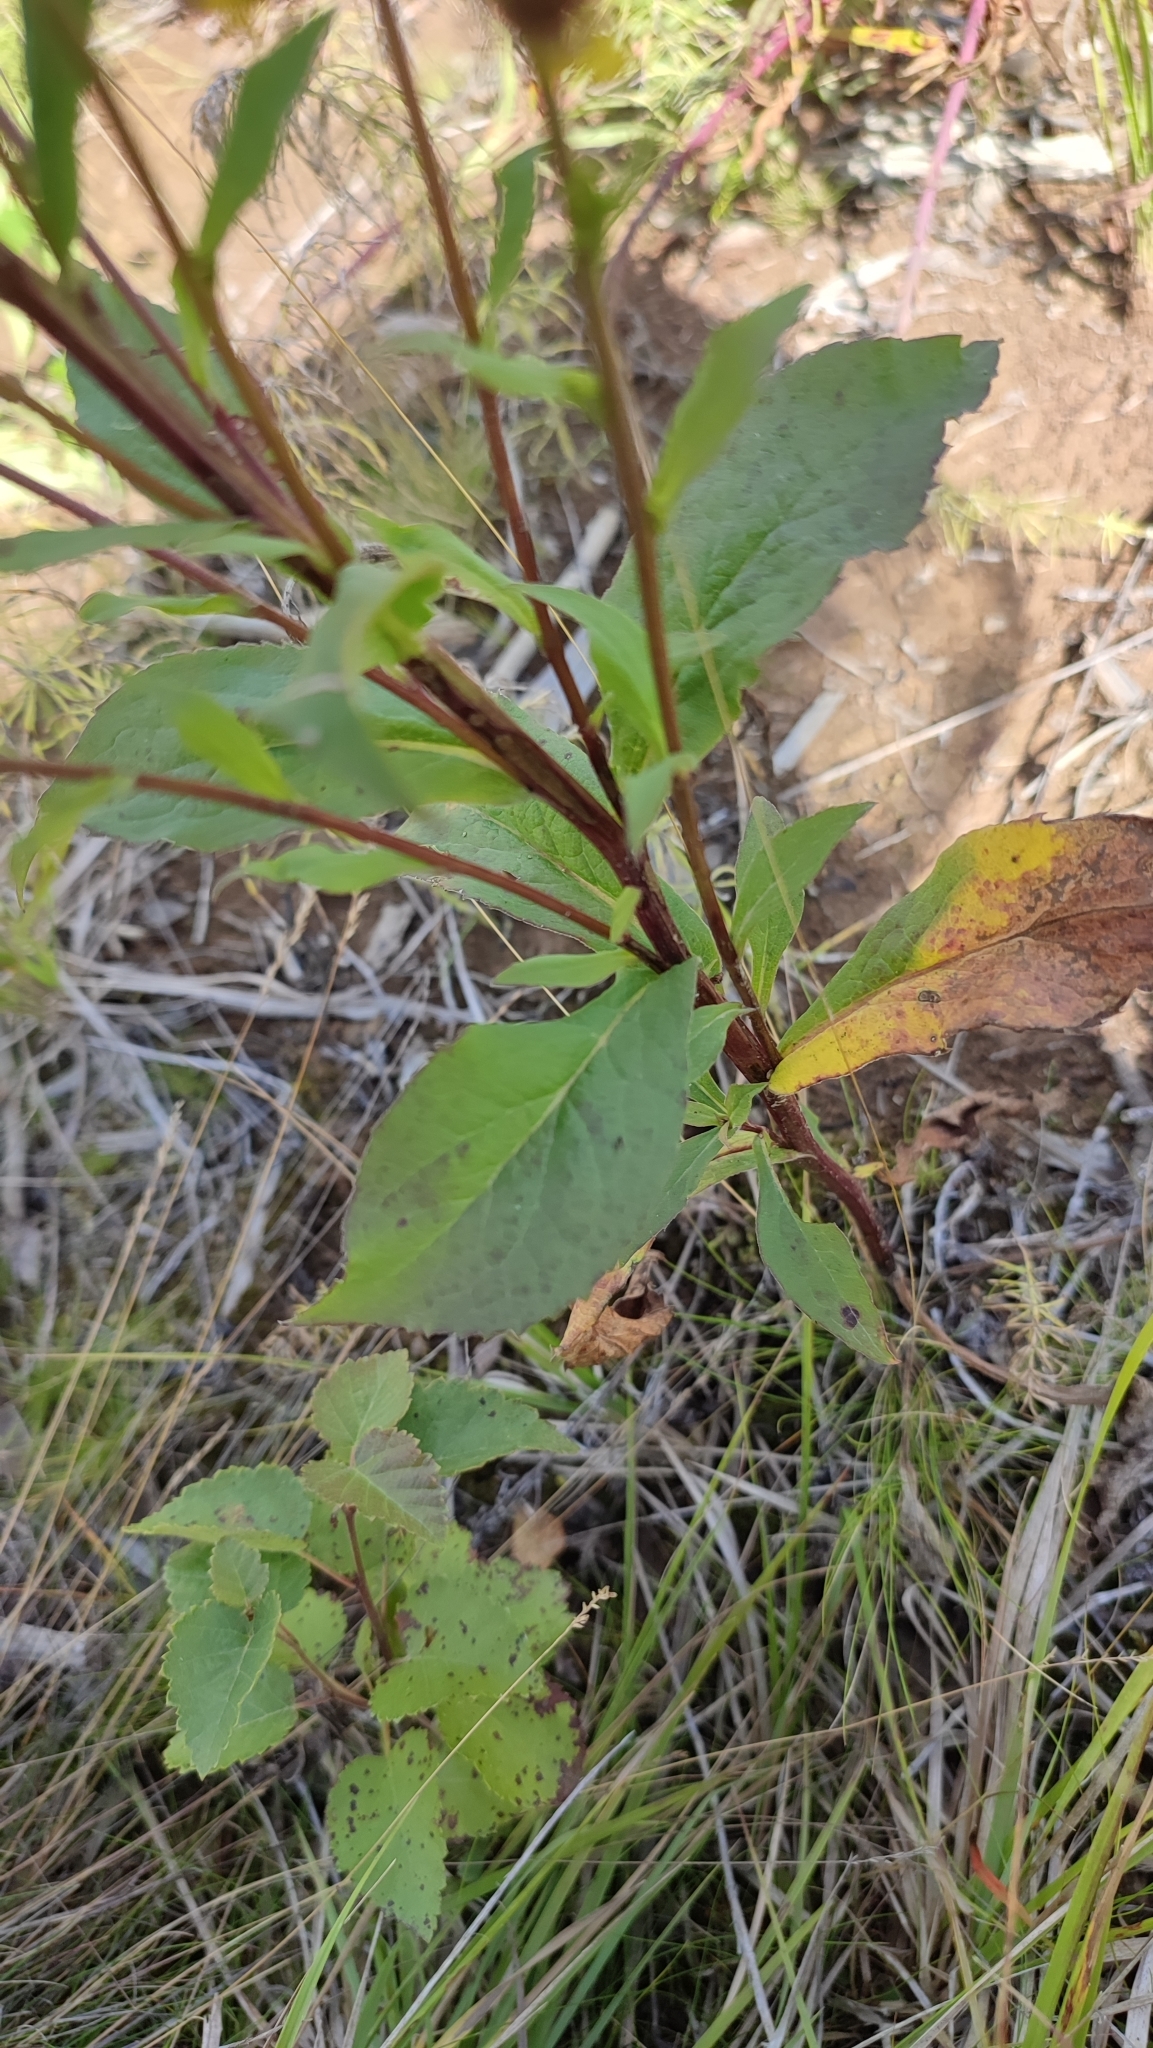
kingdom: Plantae
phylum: Tracheophyta
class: Magnoliopsida
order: Asterales
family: Asteraceae
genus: Solidago
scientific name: Solidago virgaurea
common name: Goldenrod
